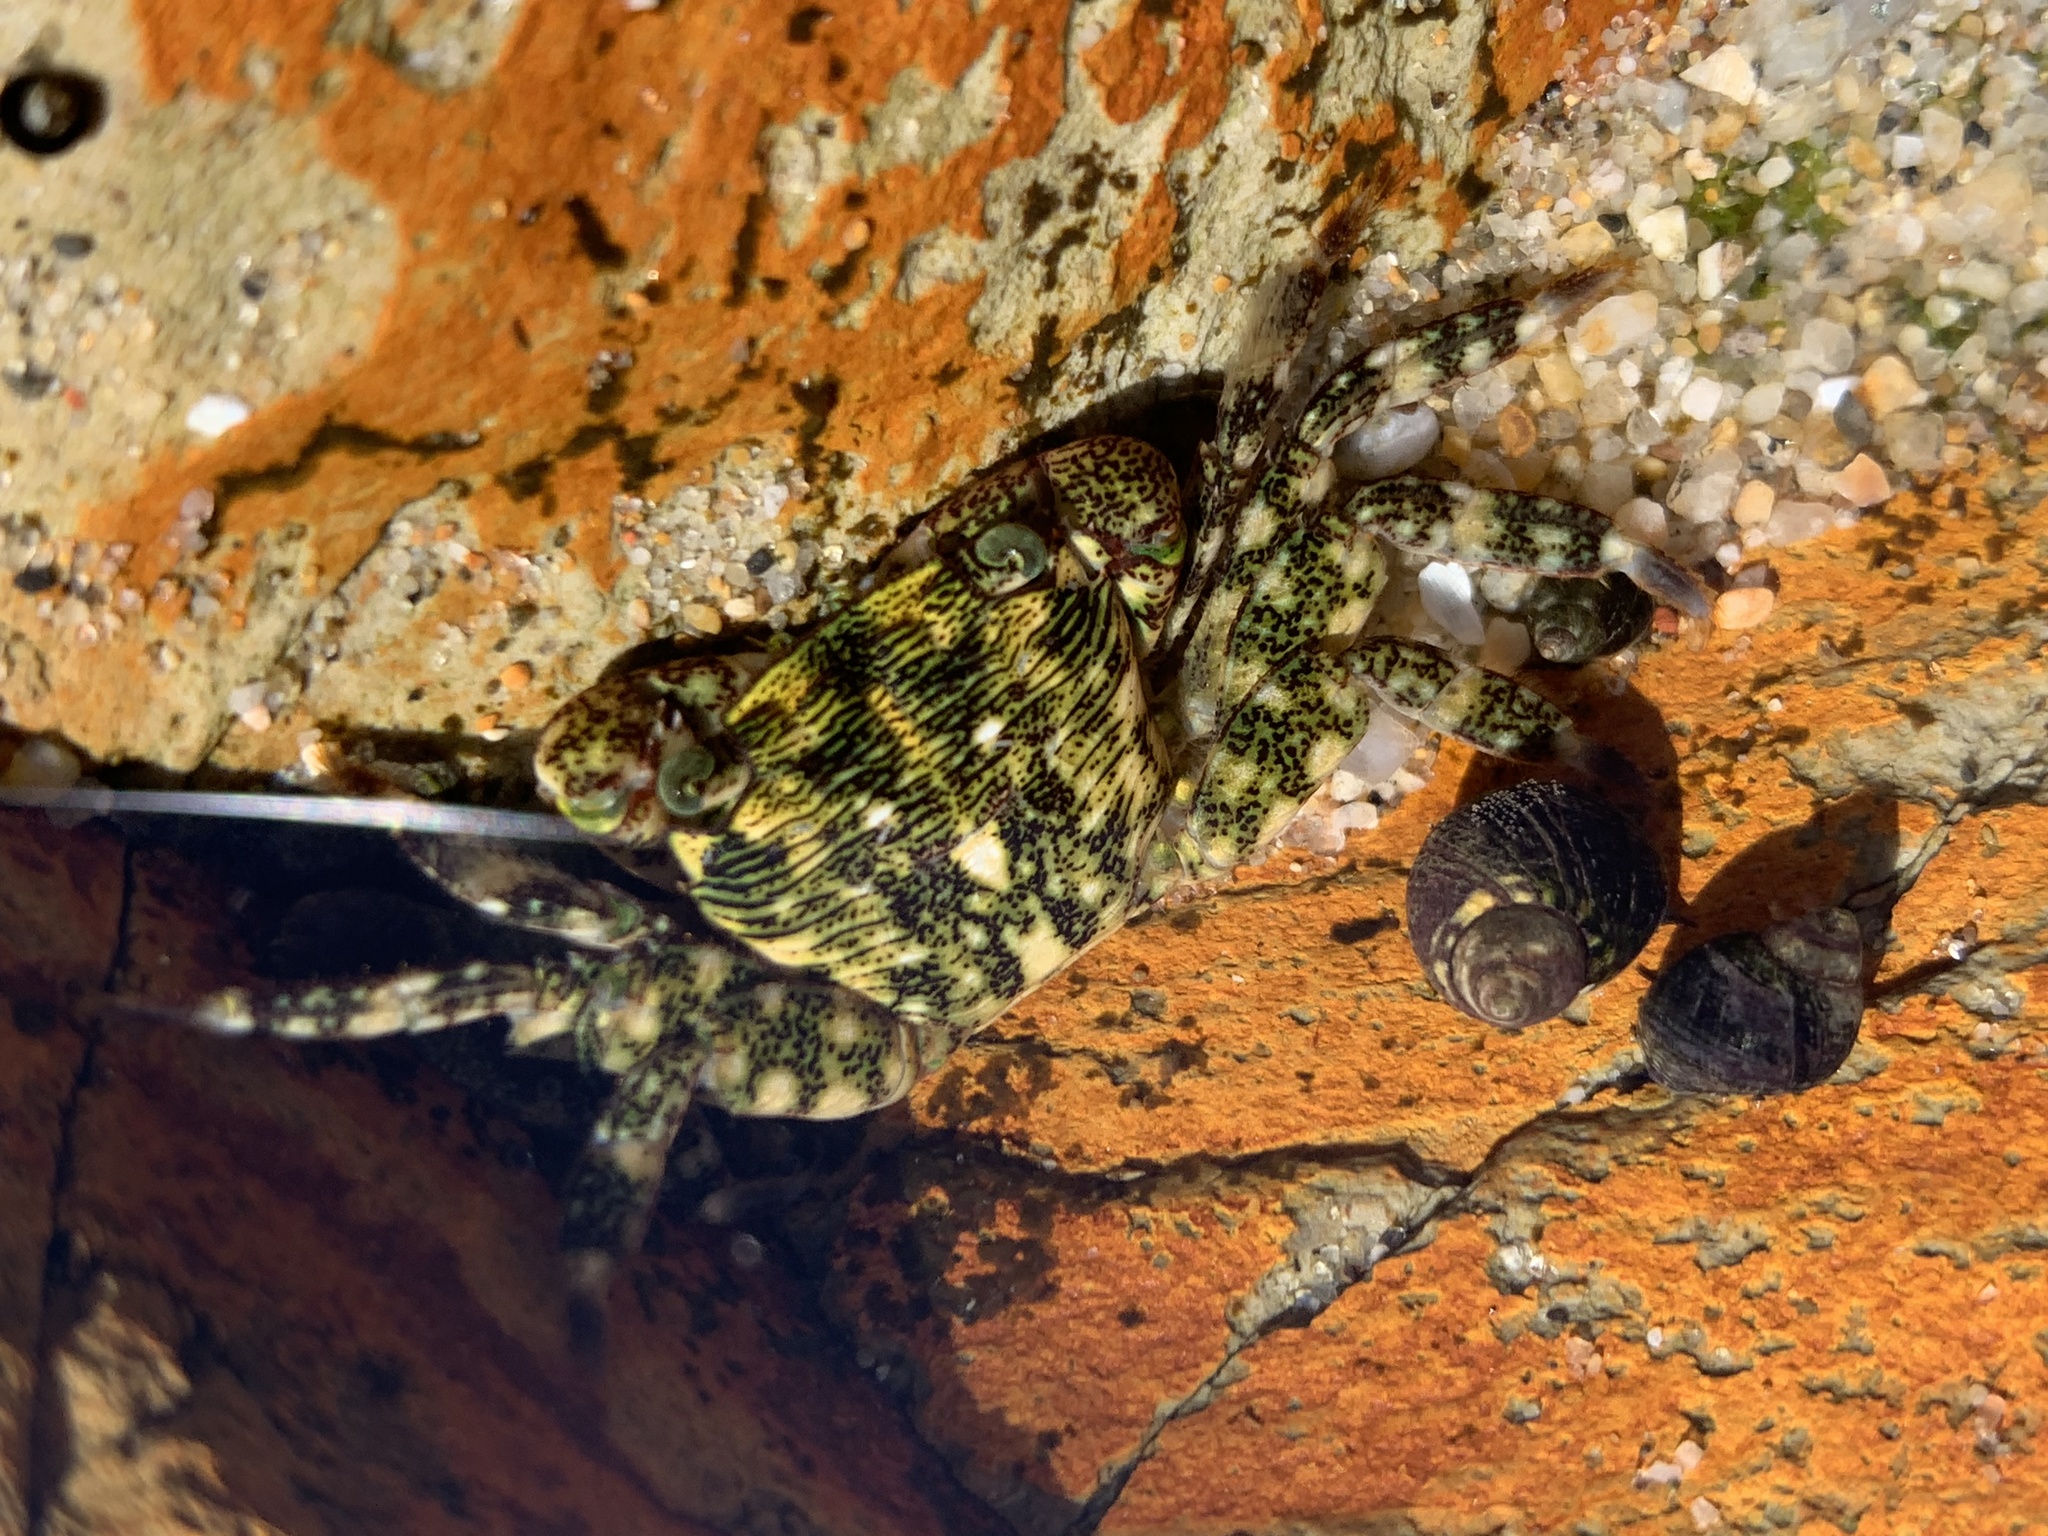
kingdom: Animalia
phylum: Arthropoda
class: Malacostraca
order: Decapoda
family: Grapsidae
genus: Pachygrapsus
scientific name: Pachygrapsus crassipes
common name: Striped shore crab
